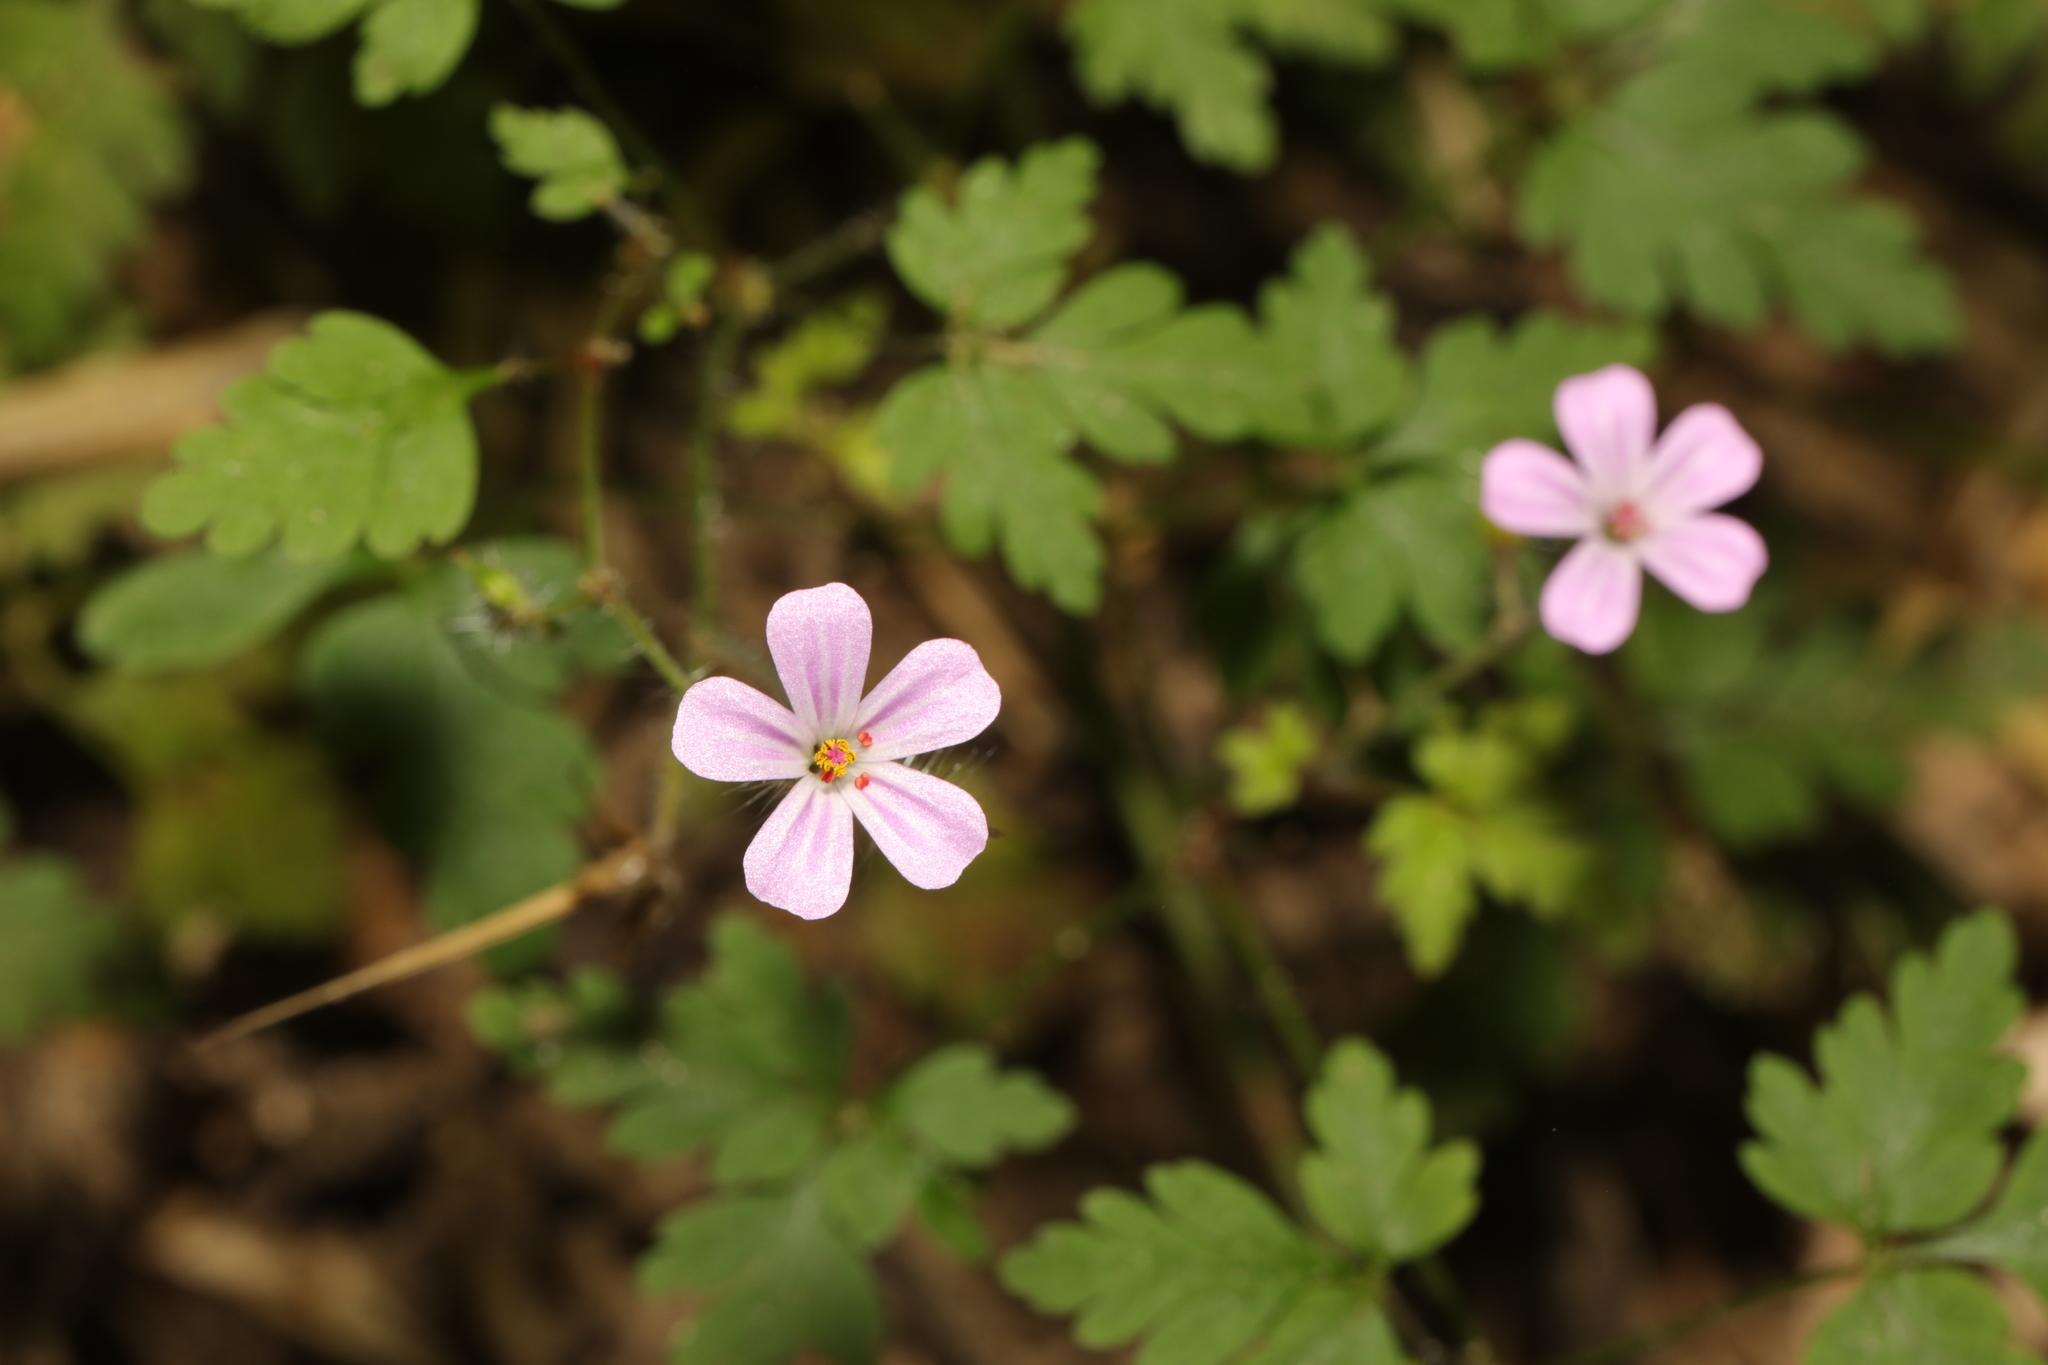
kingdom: Plantae
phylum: Tracheophyta
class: Magnoliopsida
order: Geraniales
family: Geraniaceae
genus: Geranium
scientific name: Geranium robertianum
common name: Herb-robert
